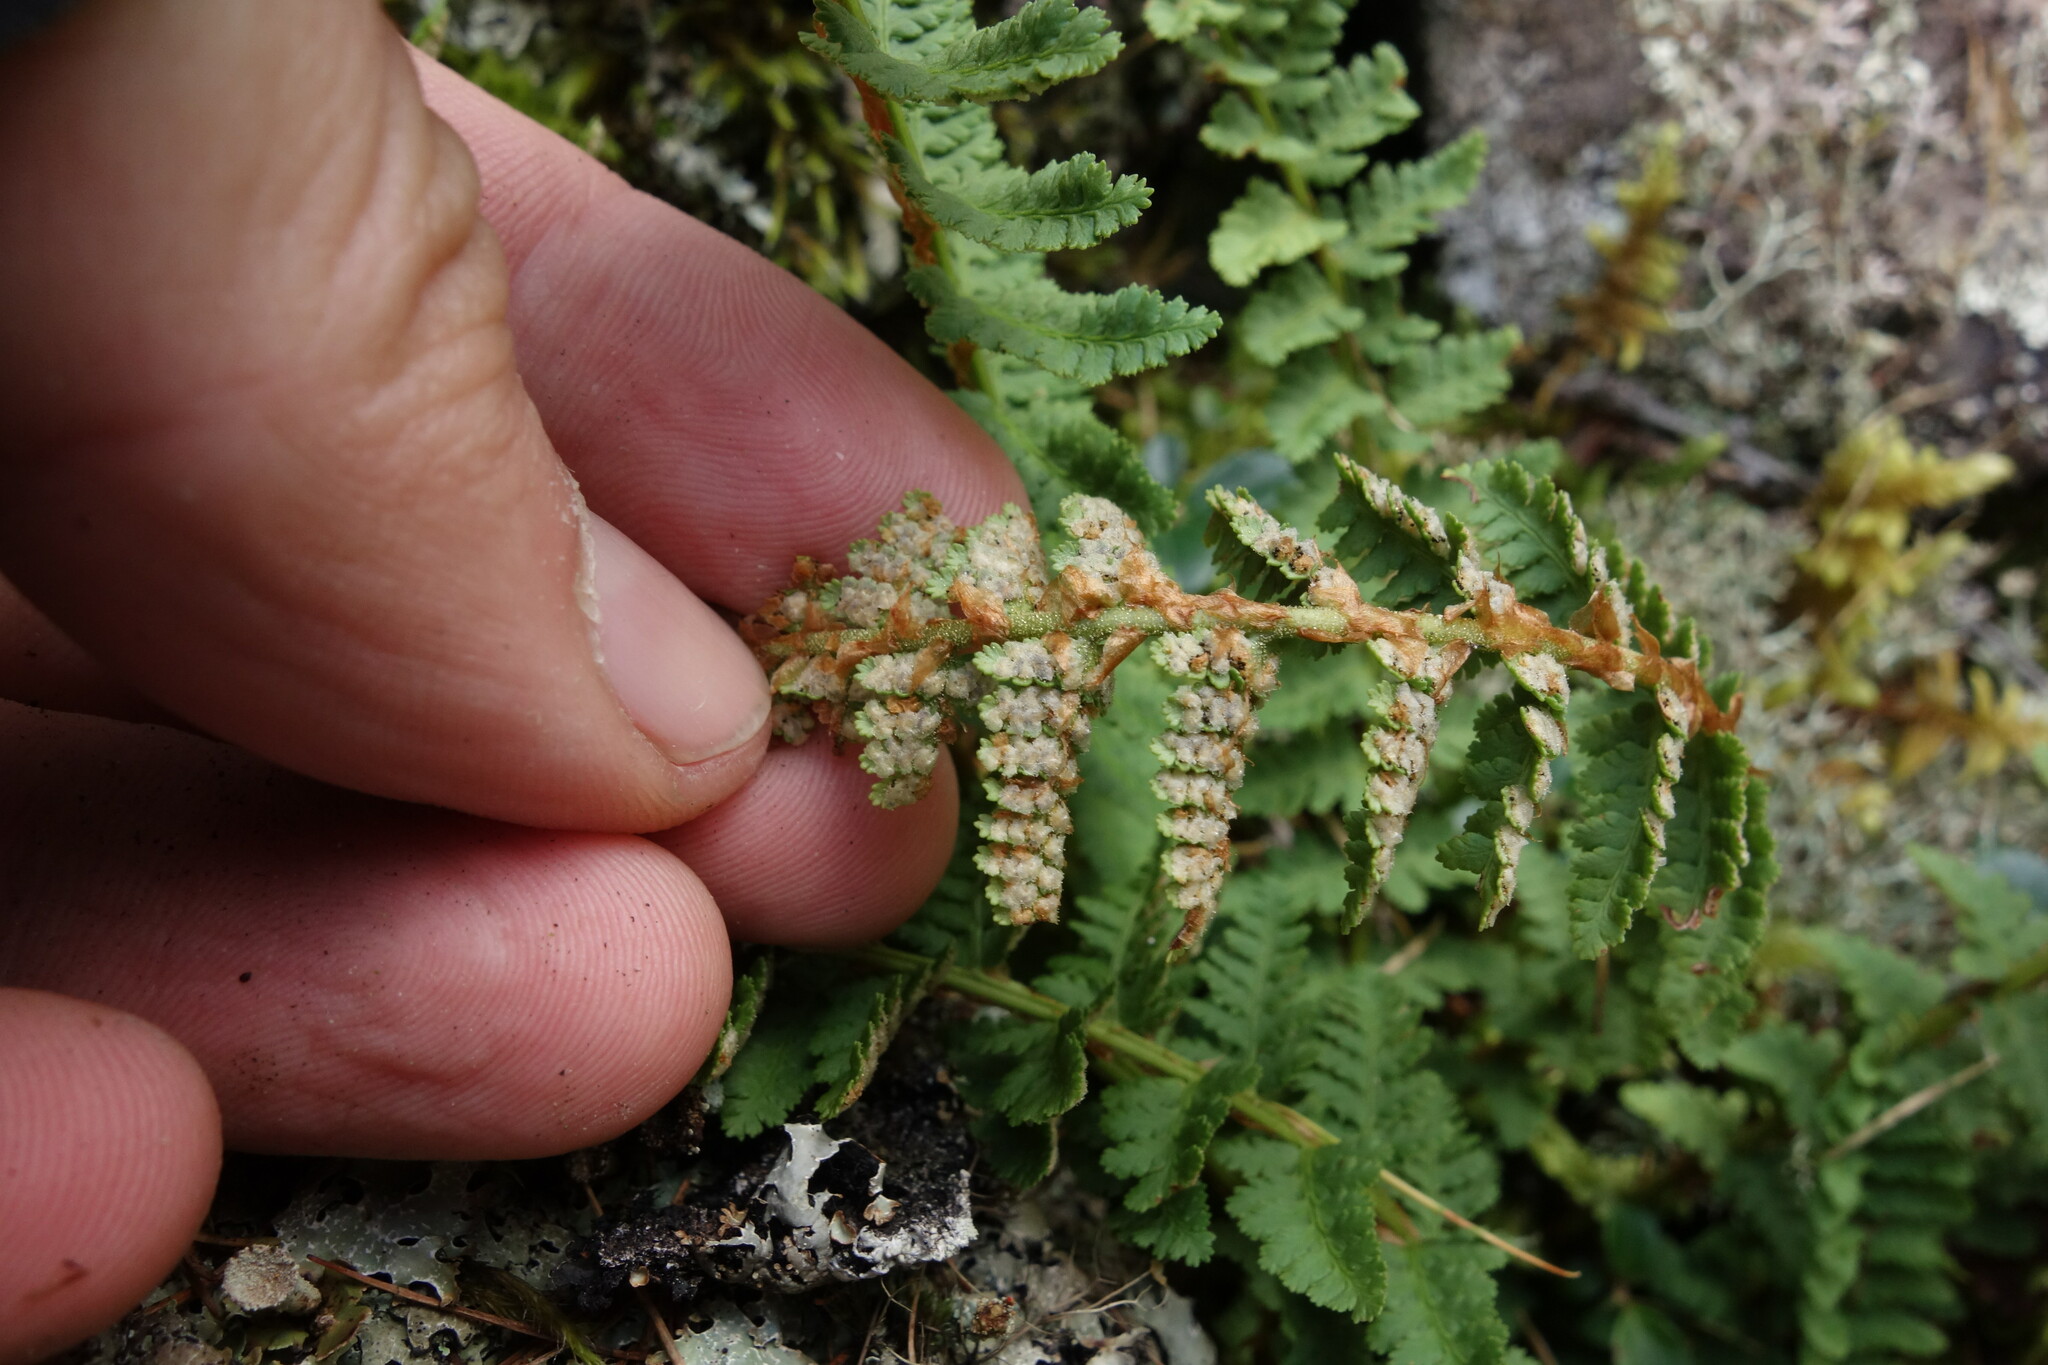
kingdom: Plantae
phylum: Tracheophyta
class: Polypodiopsida
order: Polypodiales
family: Dryopteridaceae
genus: Dryopteris
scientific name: Dryopteris fragrans
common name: Fragrant wood fern
